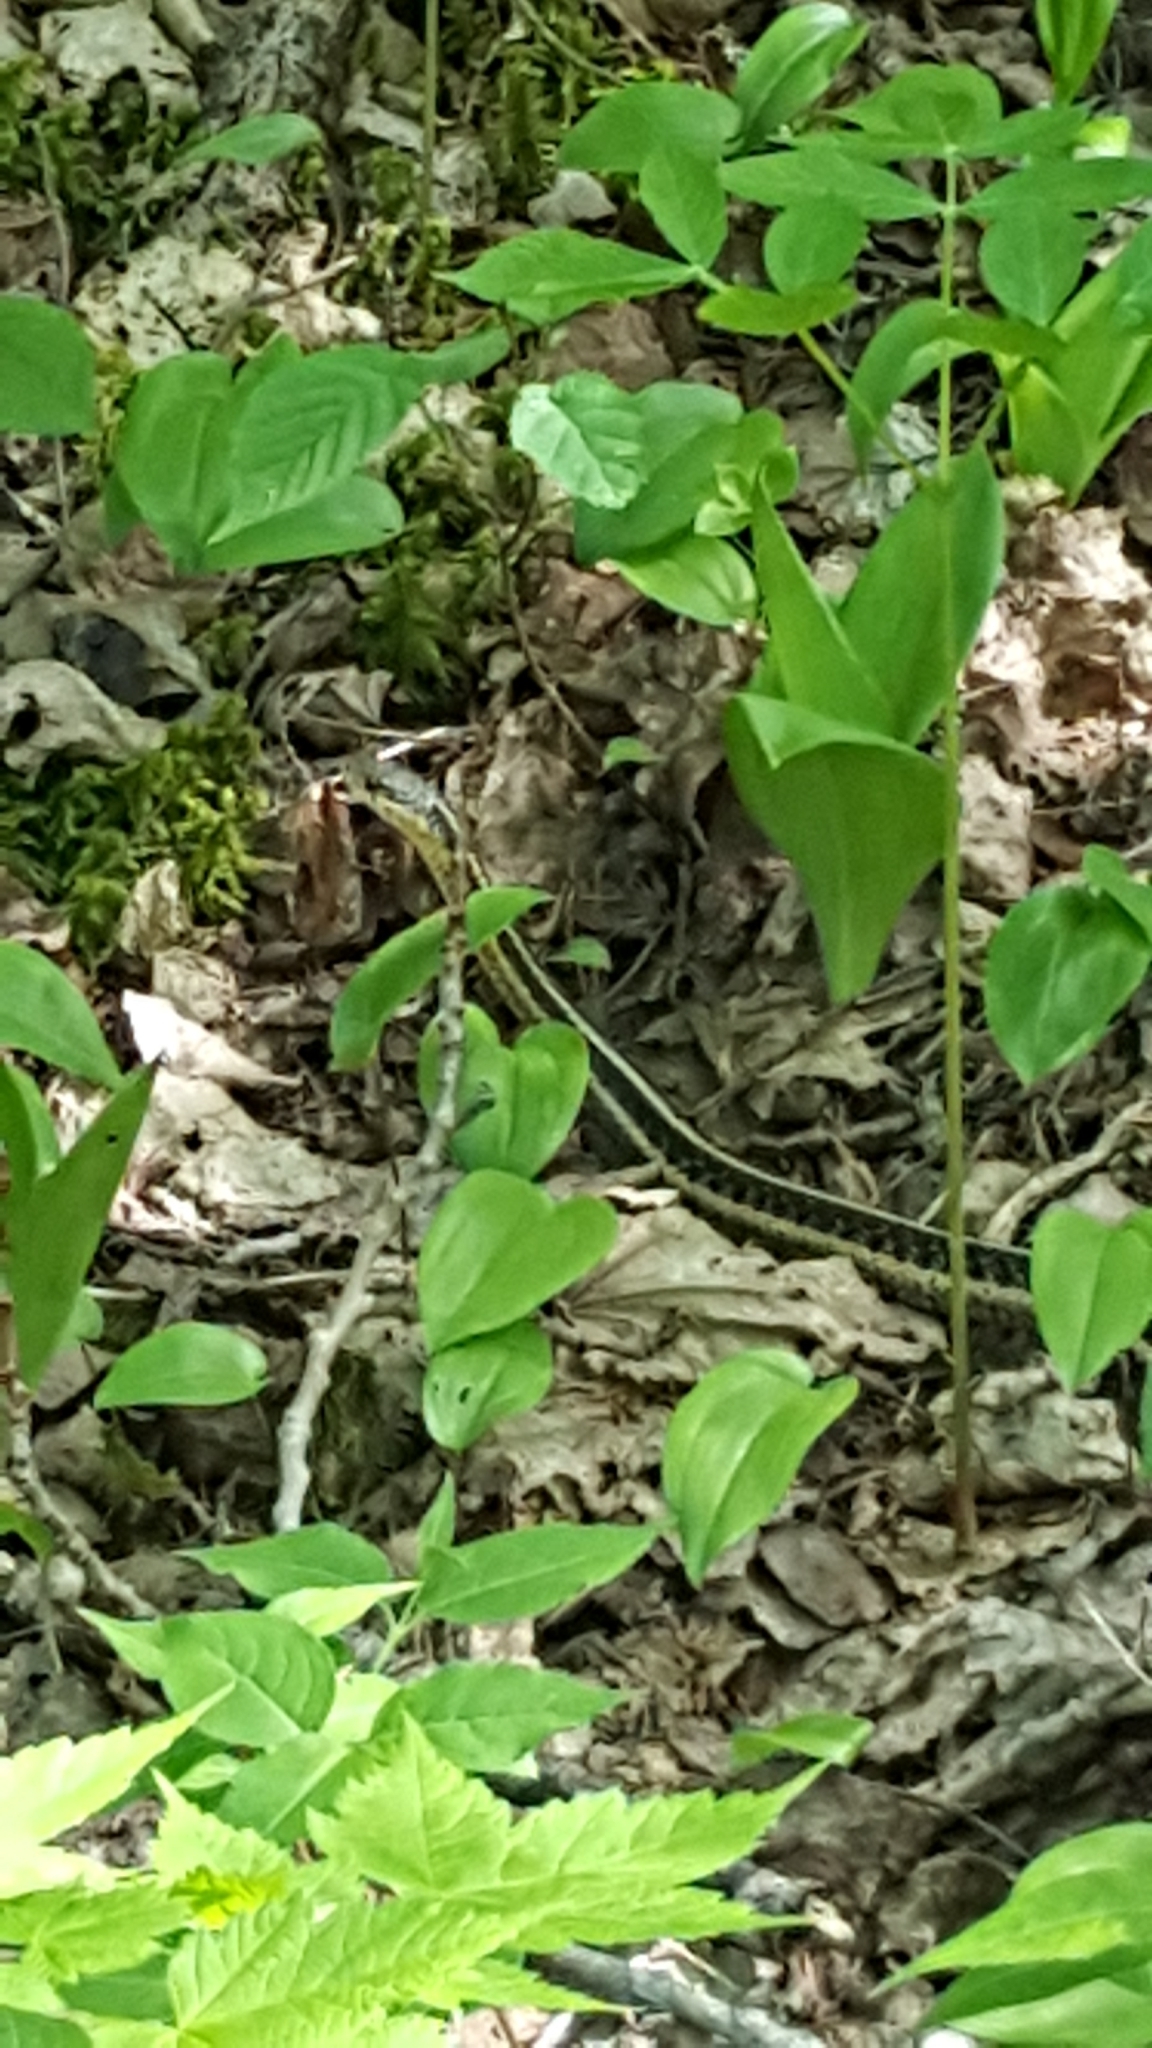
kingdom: Animalia
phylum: Chordata
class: Squamata
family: Colubridae
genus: Thamnophis
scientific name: Thamnophis sirtalis
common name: Common garter snake
